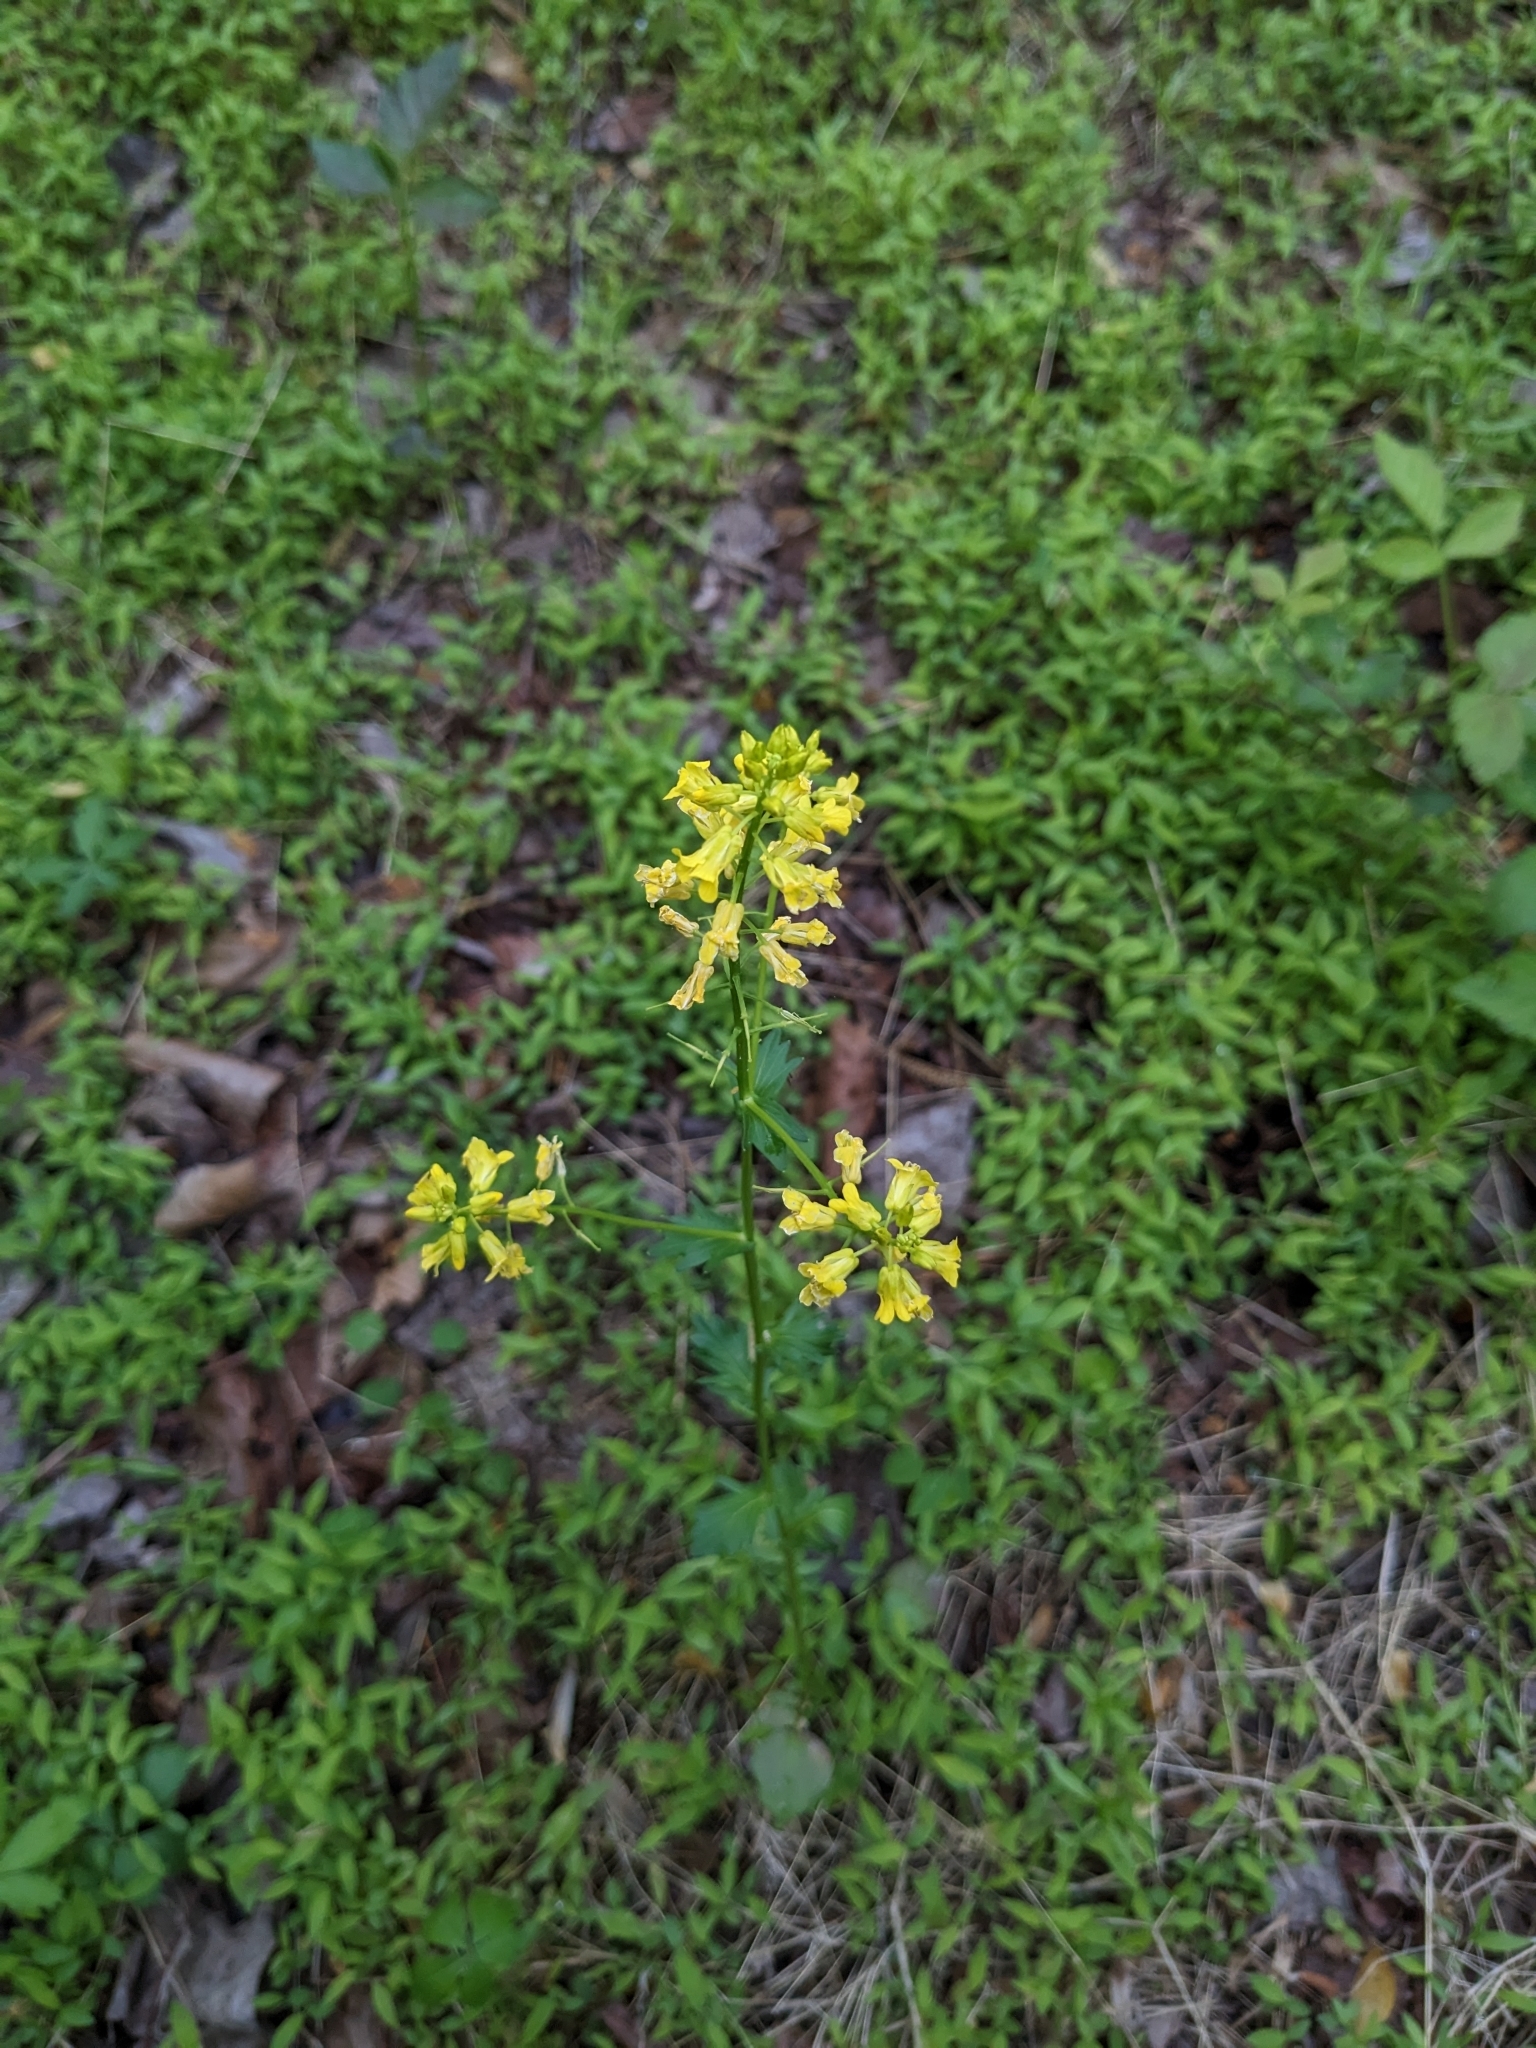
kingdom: Plantae
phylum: Tracheophyta
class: Magnoliopsida
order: Brassicales
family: Brassicaceae
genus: Barbarea
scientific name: Barbarea vulgaris
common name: Cressy-greens
